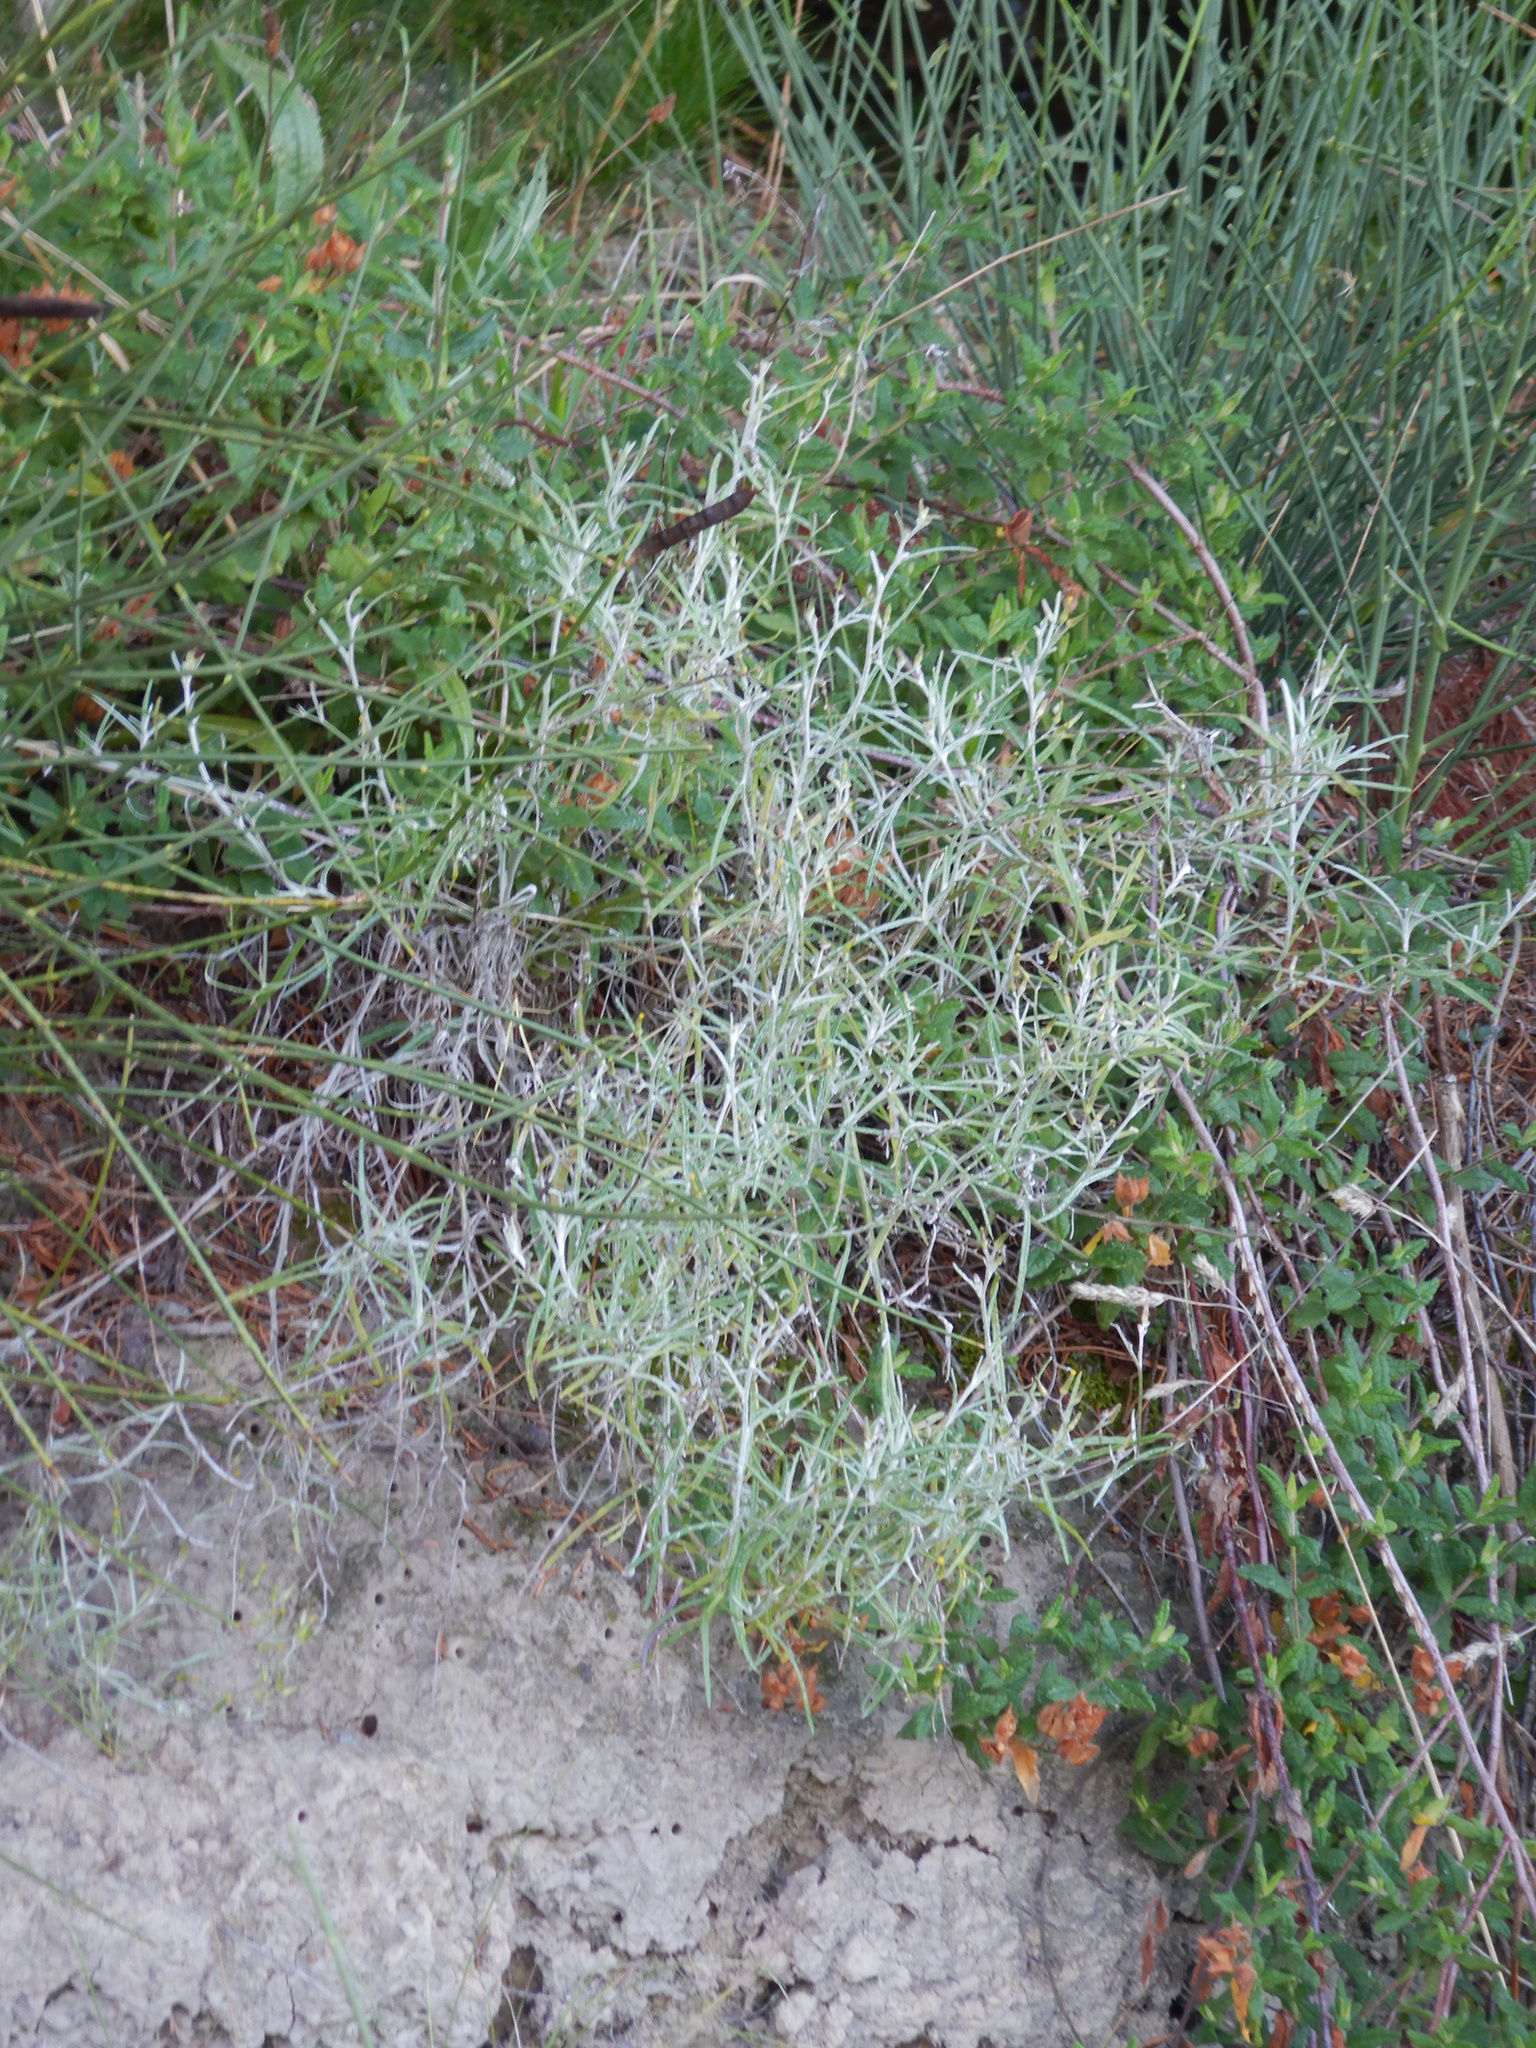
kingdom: Plantae
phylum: Tracheophyta
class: Magnoliopsida
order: Asterales
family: Asteraceae
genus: Senecio
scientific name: Senecio quadridentatus
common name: Cotton fireweed
